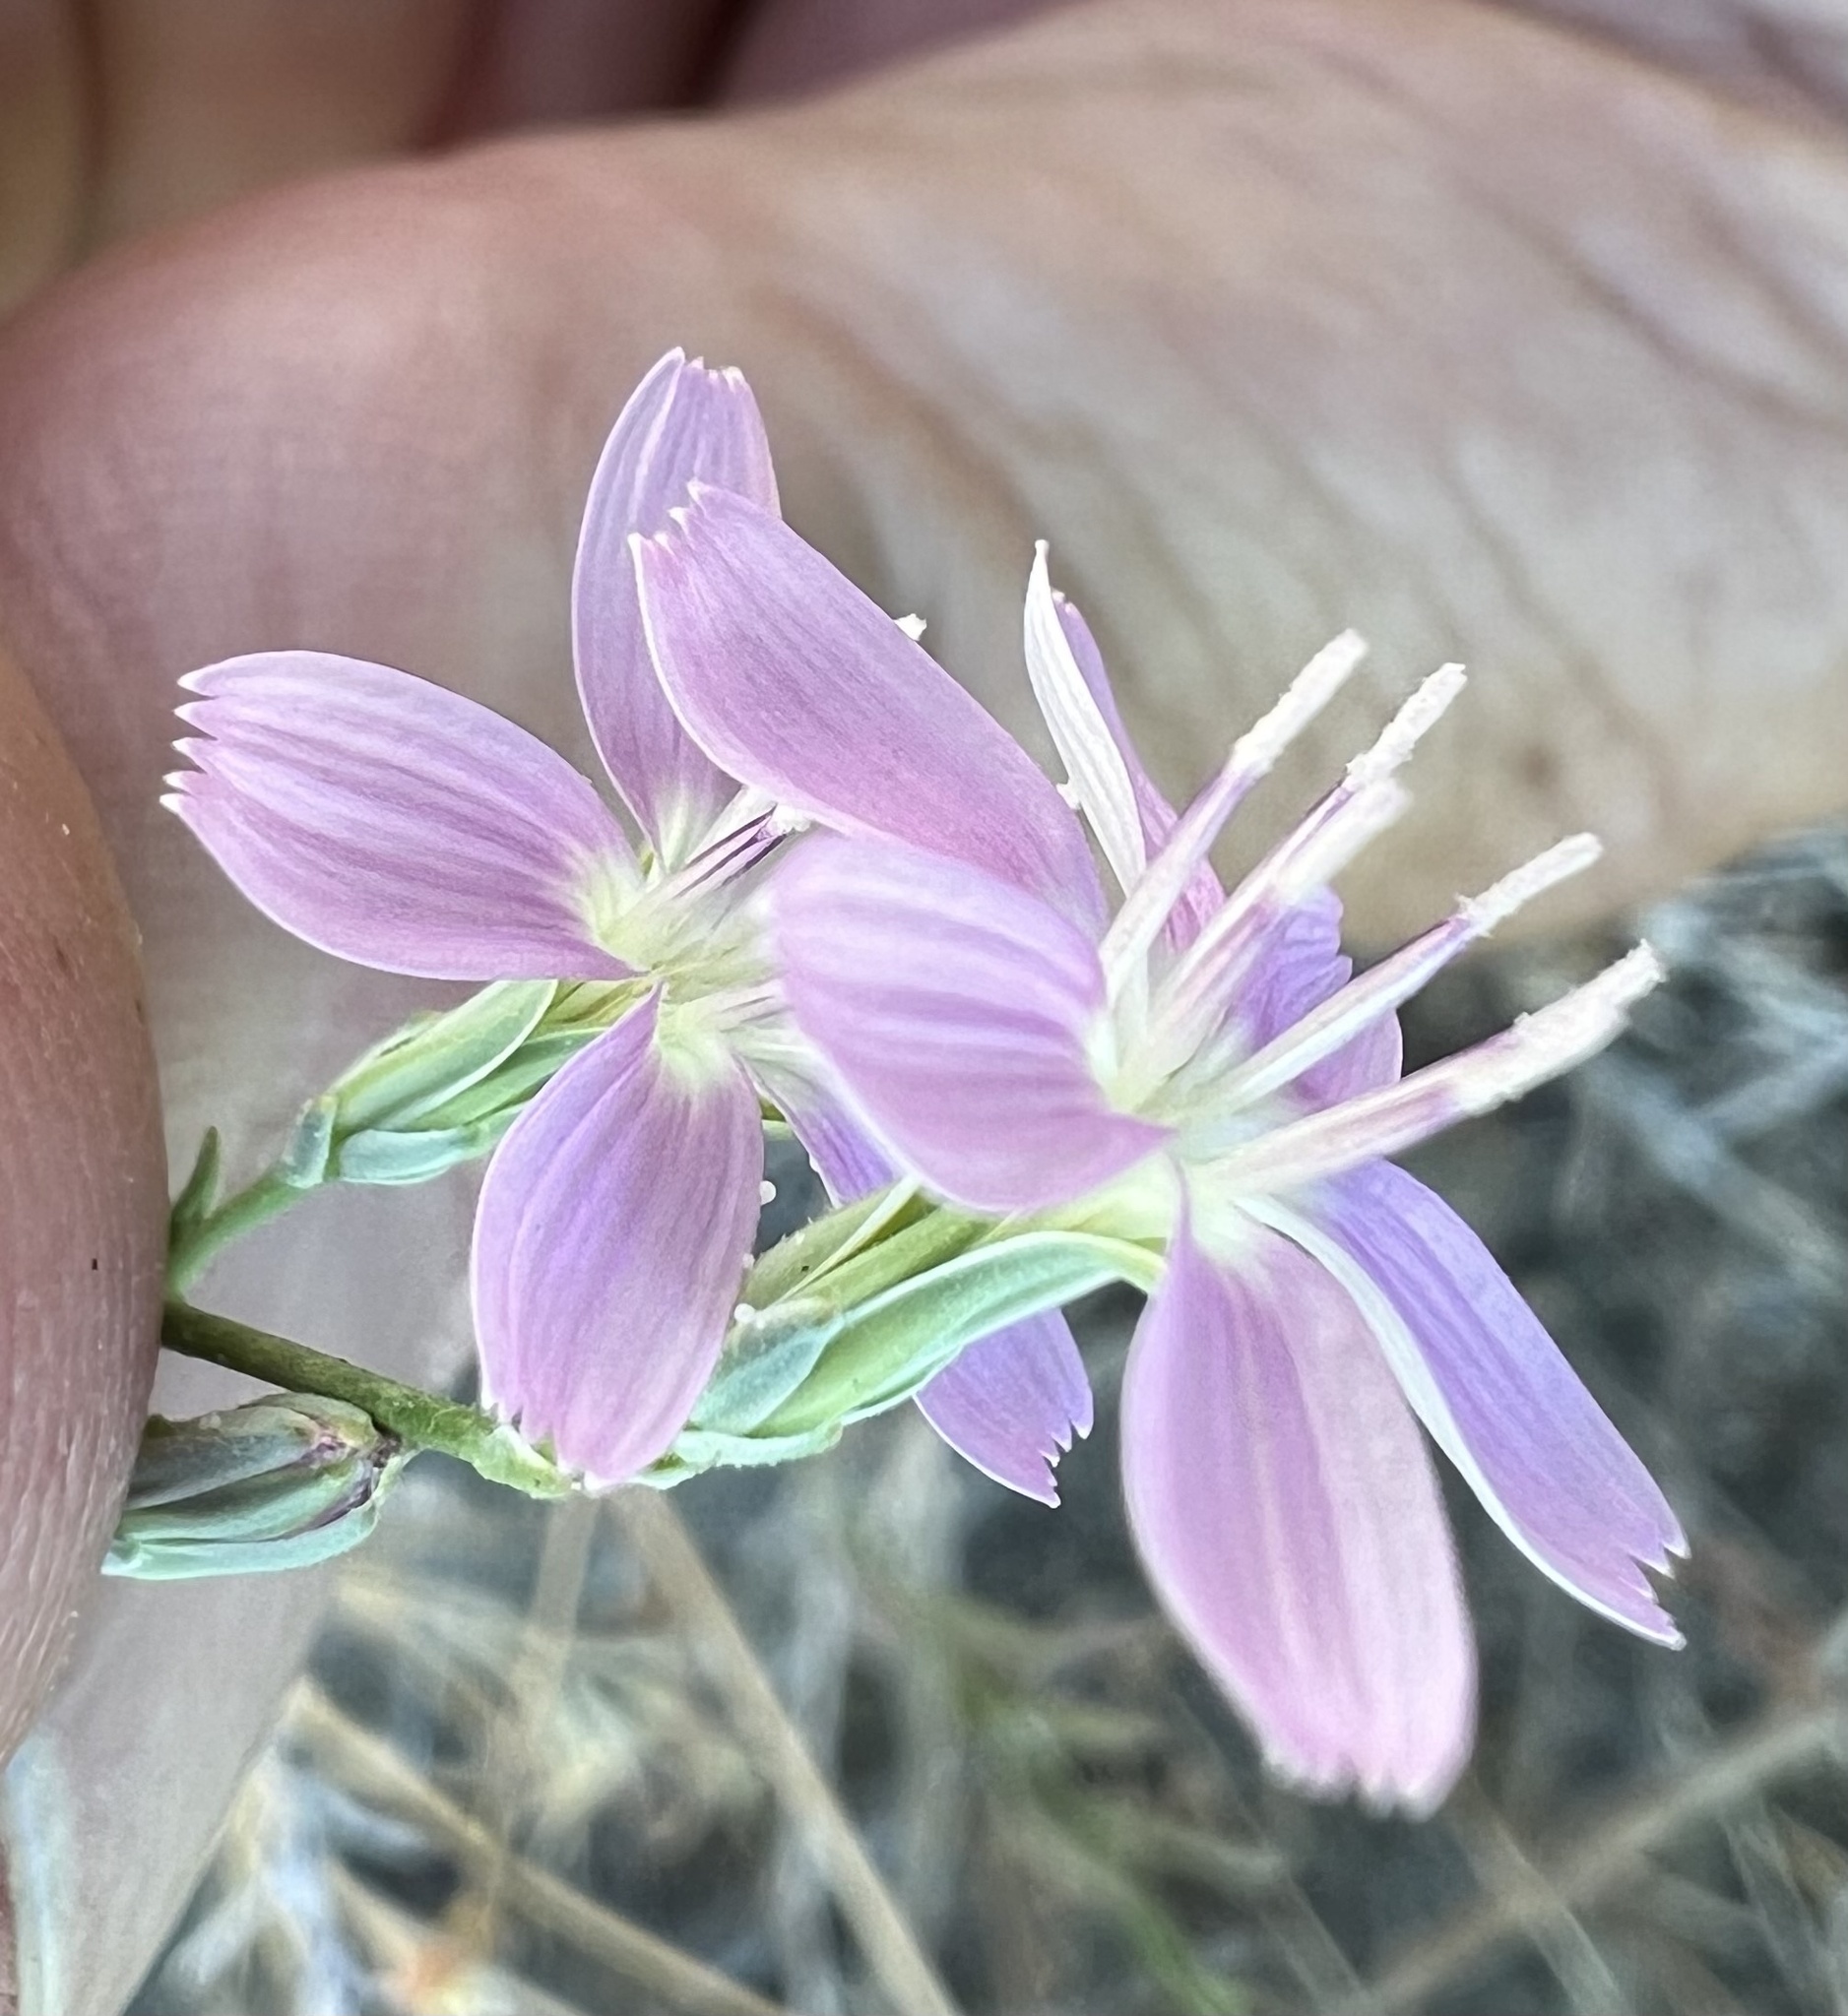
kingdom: Plantae
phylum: Tracheophyta
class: Magnoliopsida
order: Asterales
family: Asteraceae
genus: Stephanomeria
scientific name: Stephanomeria exigua
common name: Small wirelettuce
